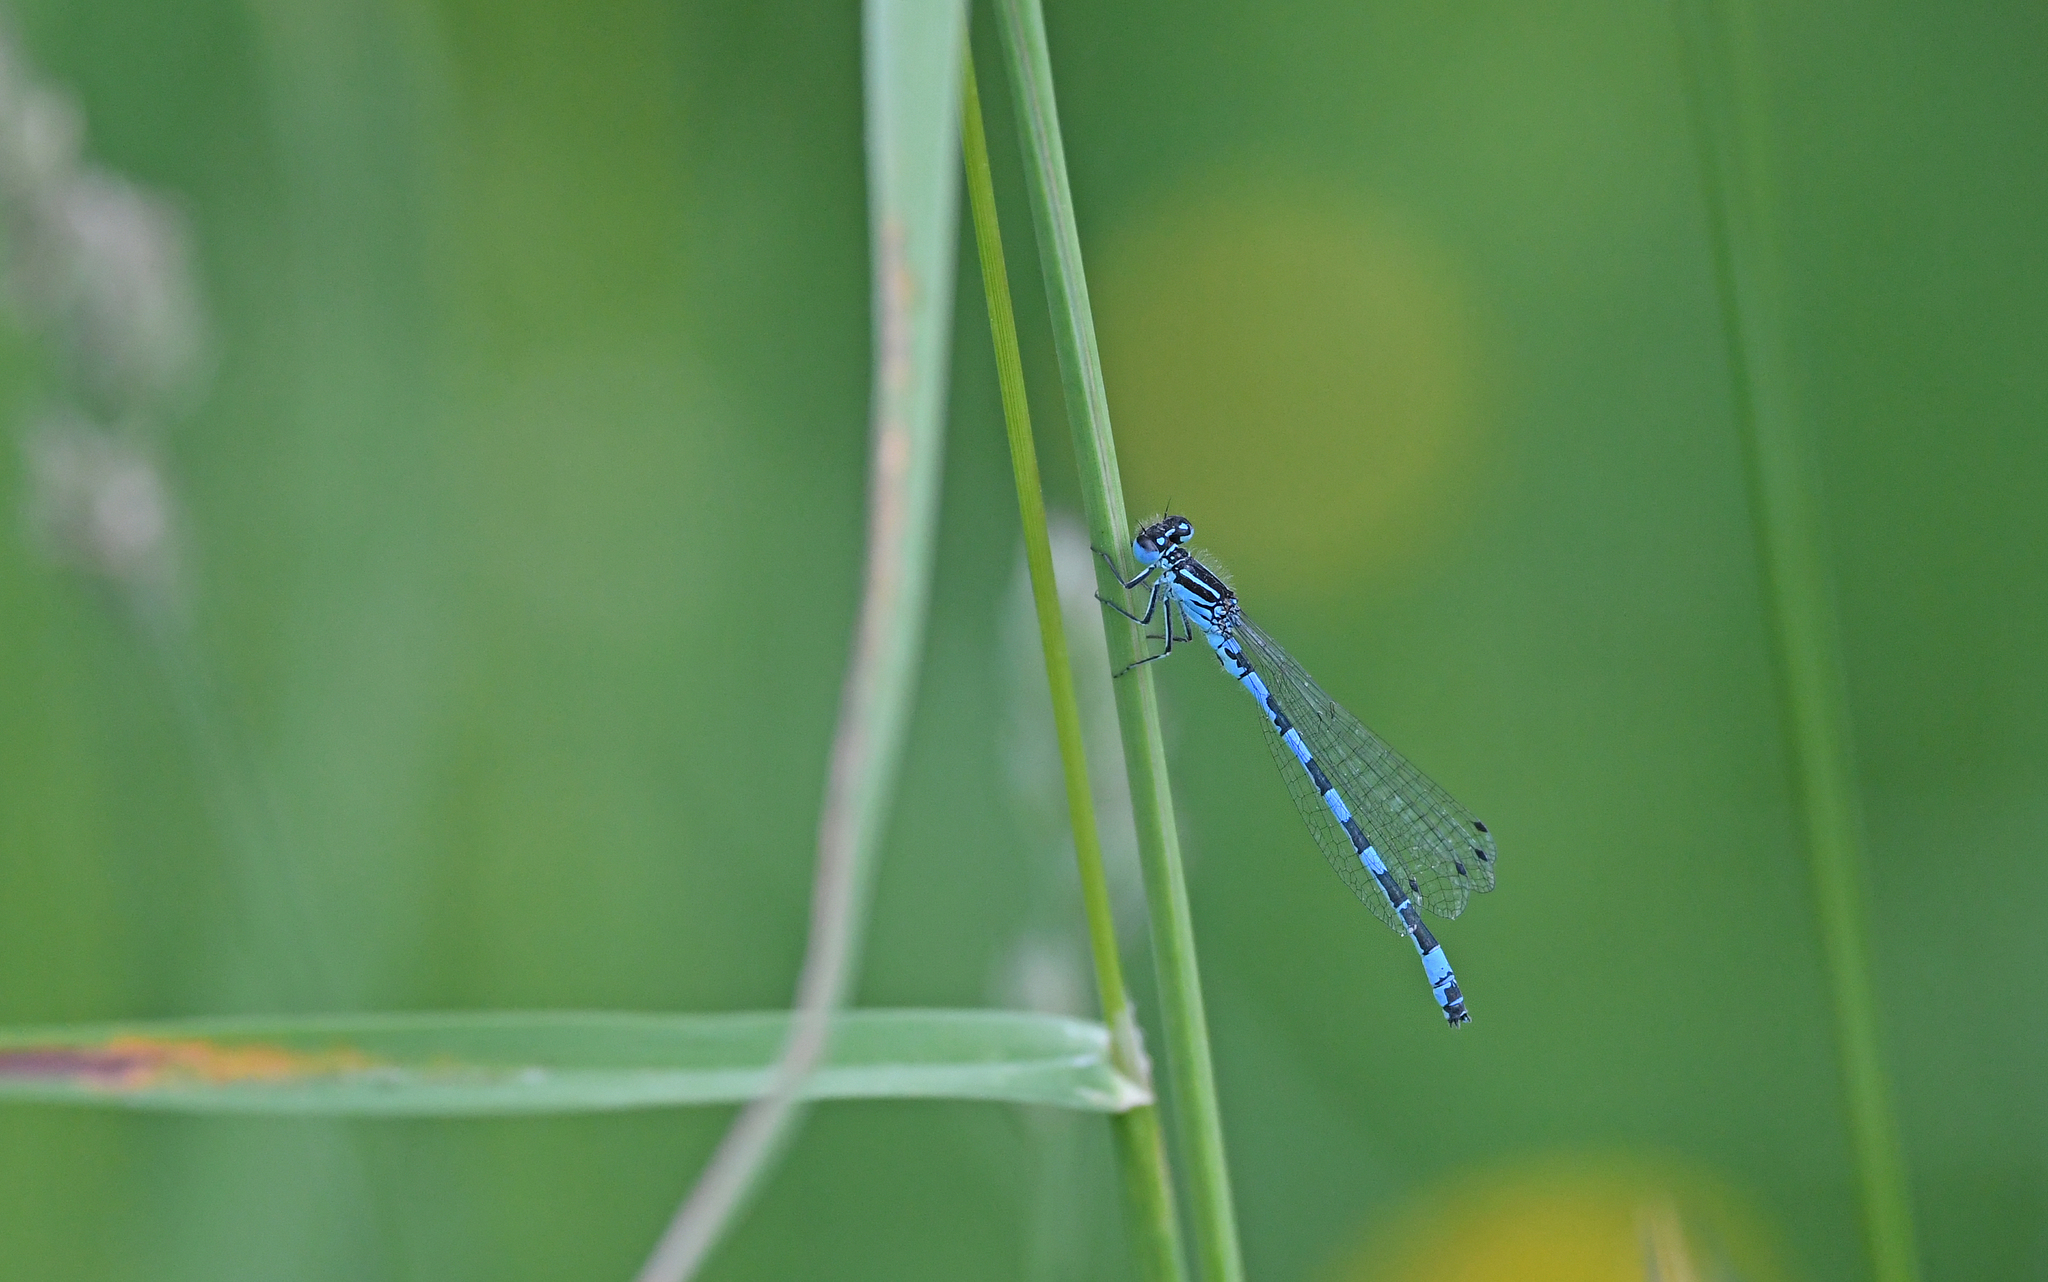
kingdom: Animalia
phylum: Arthropoda
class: Insecta
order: Odonata
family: Coenagrionidae
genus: Coenagrion
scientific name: Coenagrion mercuriale
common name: Southern damselfly
